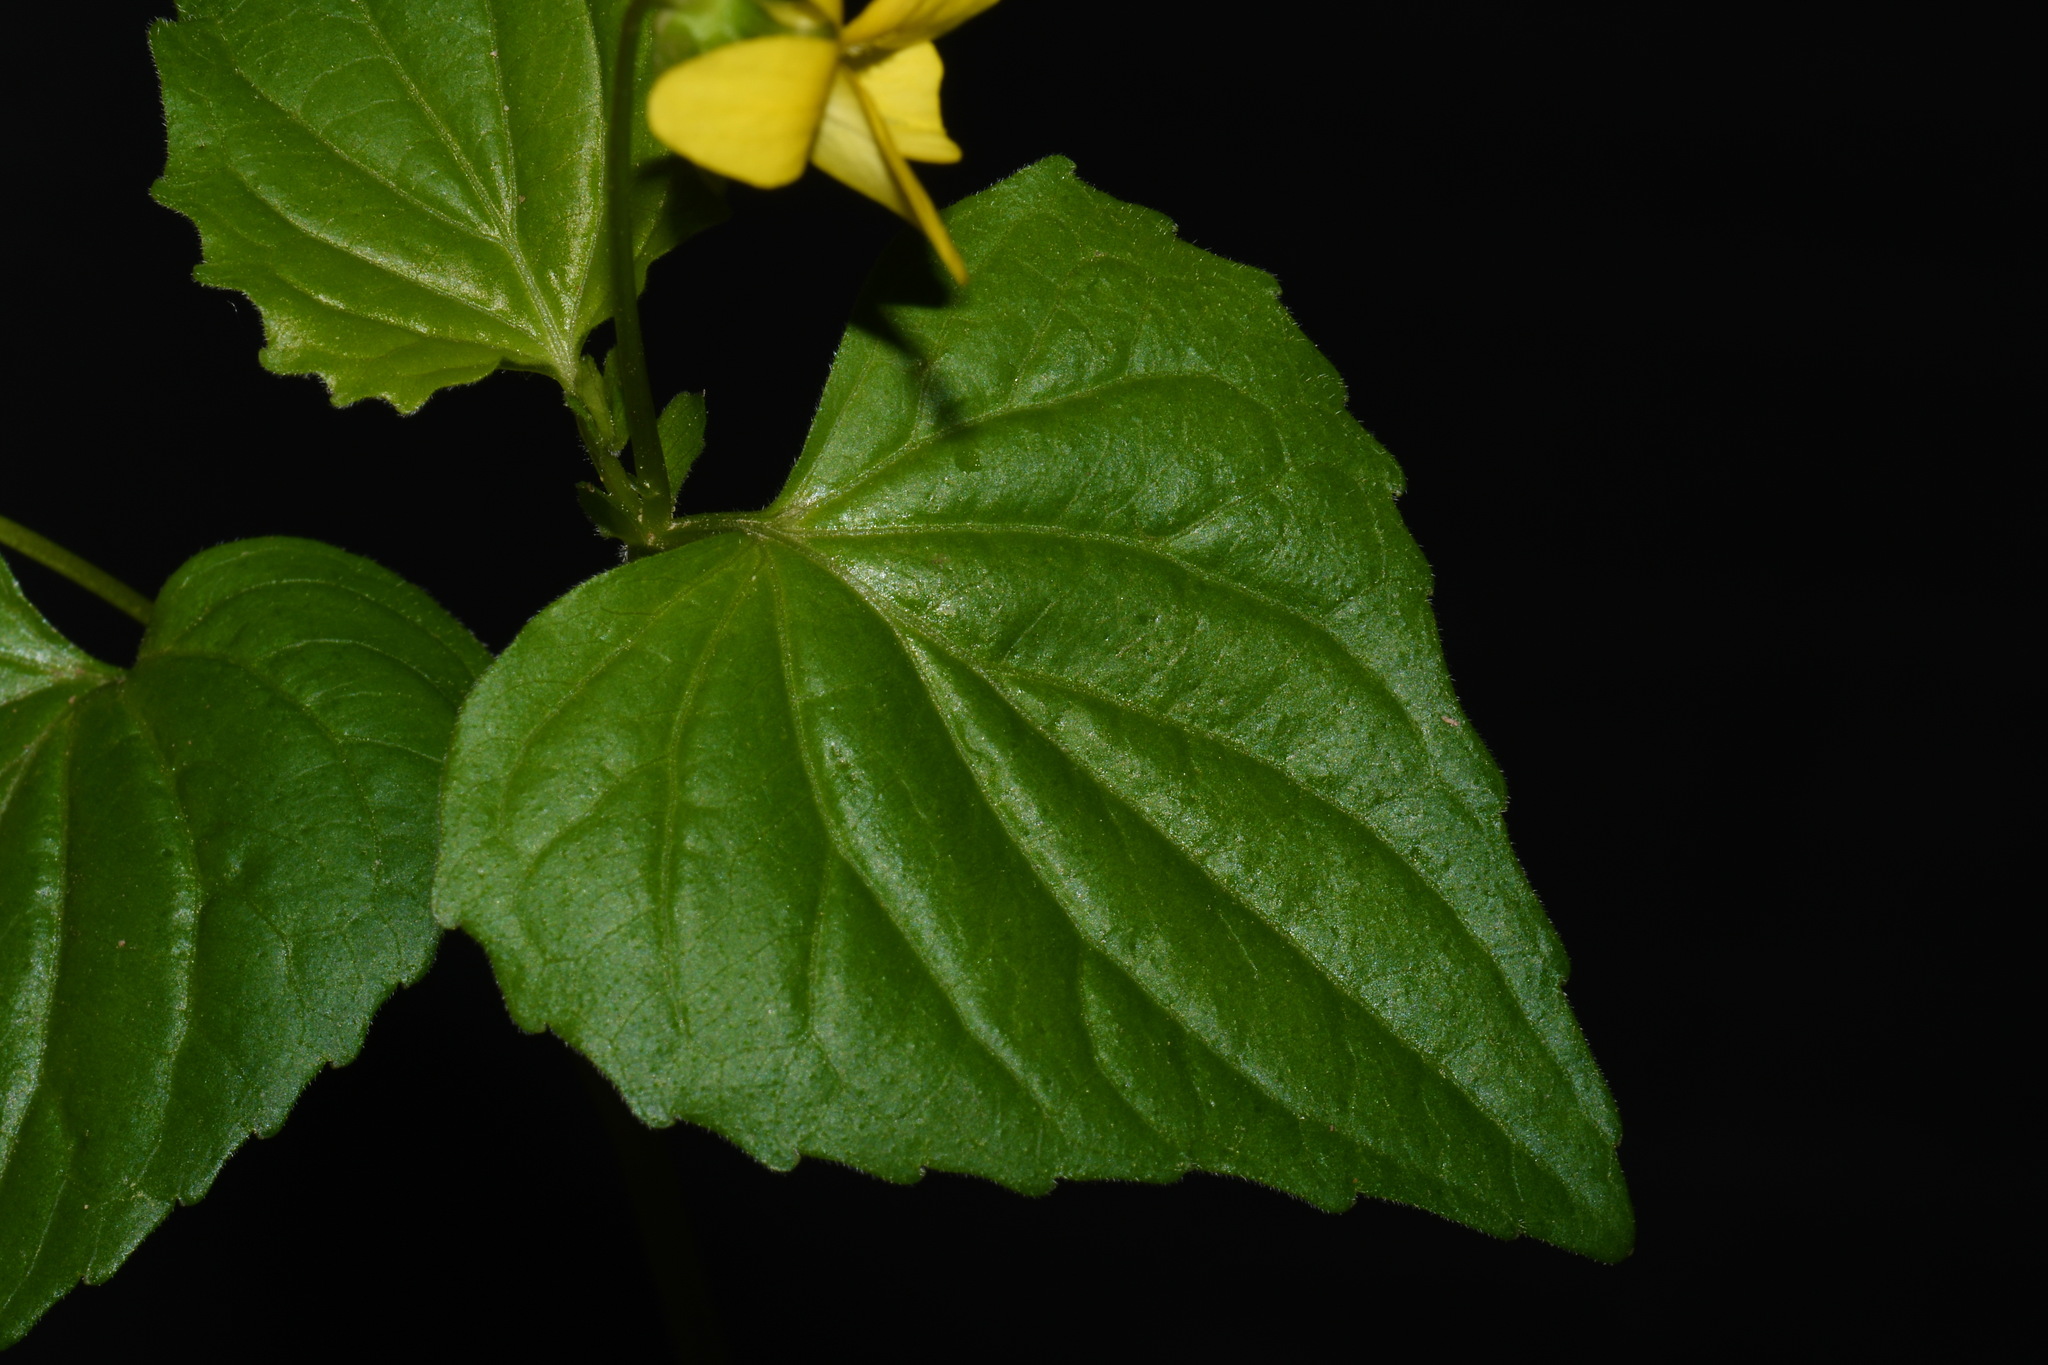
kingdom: Plantae
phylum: Tracheophyta
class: Magnoliopsida
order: Malpighiales
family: Violaceae
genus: Viola
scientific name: Viola eriocarpa
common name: Smooth yellow violet
